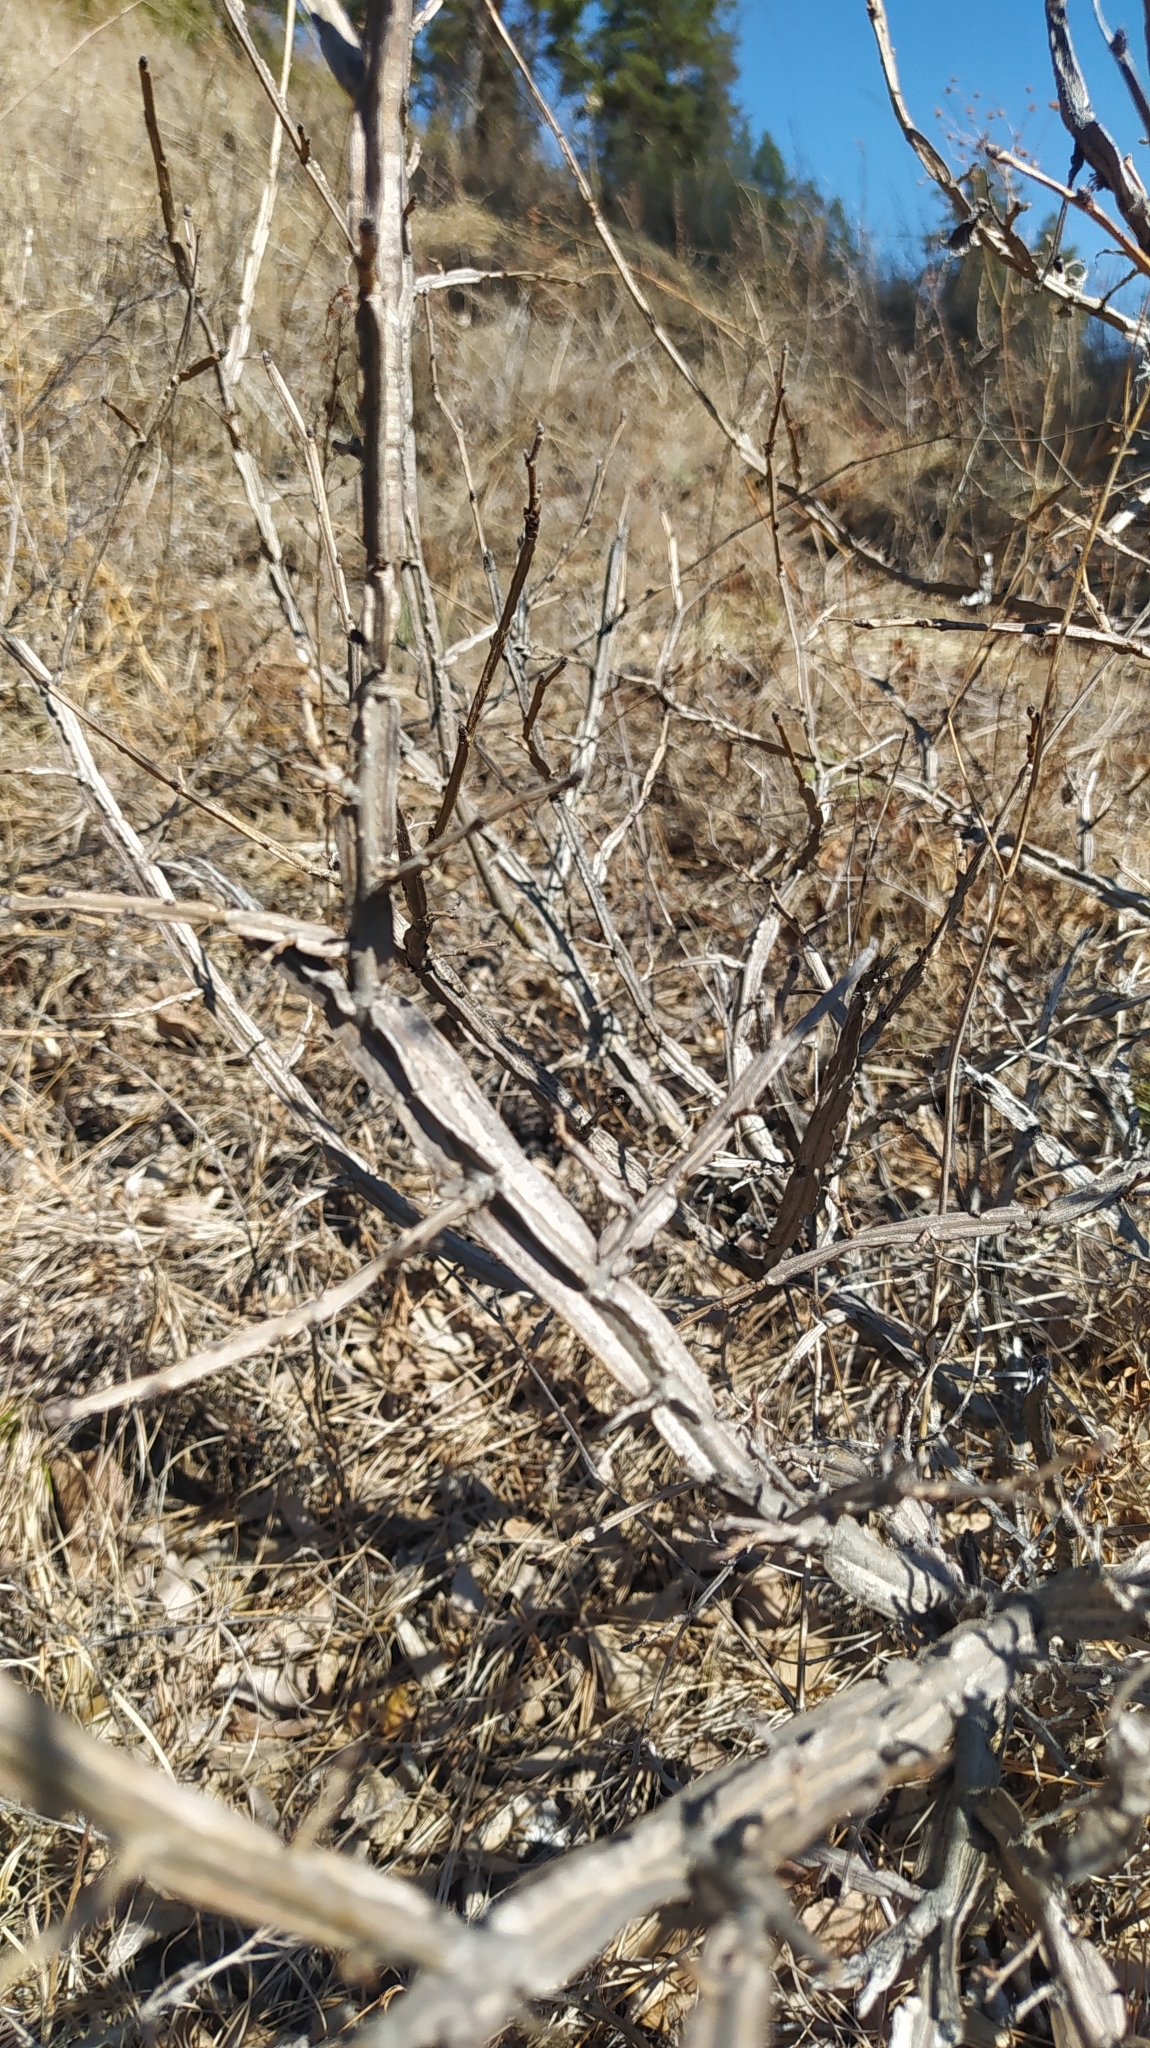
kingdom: Plantae
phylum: Tracheophyta
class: Magnoliopsida
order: Rosales
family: Ulmaceae
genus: Ulmus
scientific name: Ulmus pumila
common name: Siberian elm
